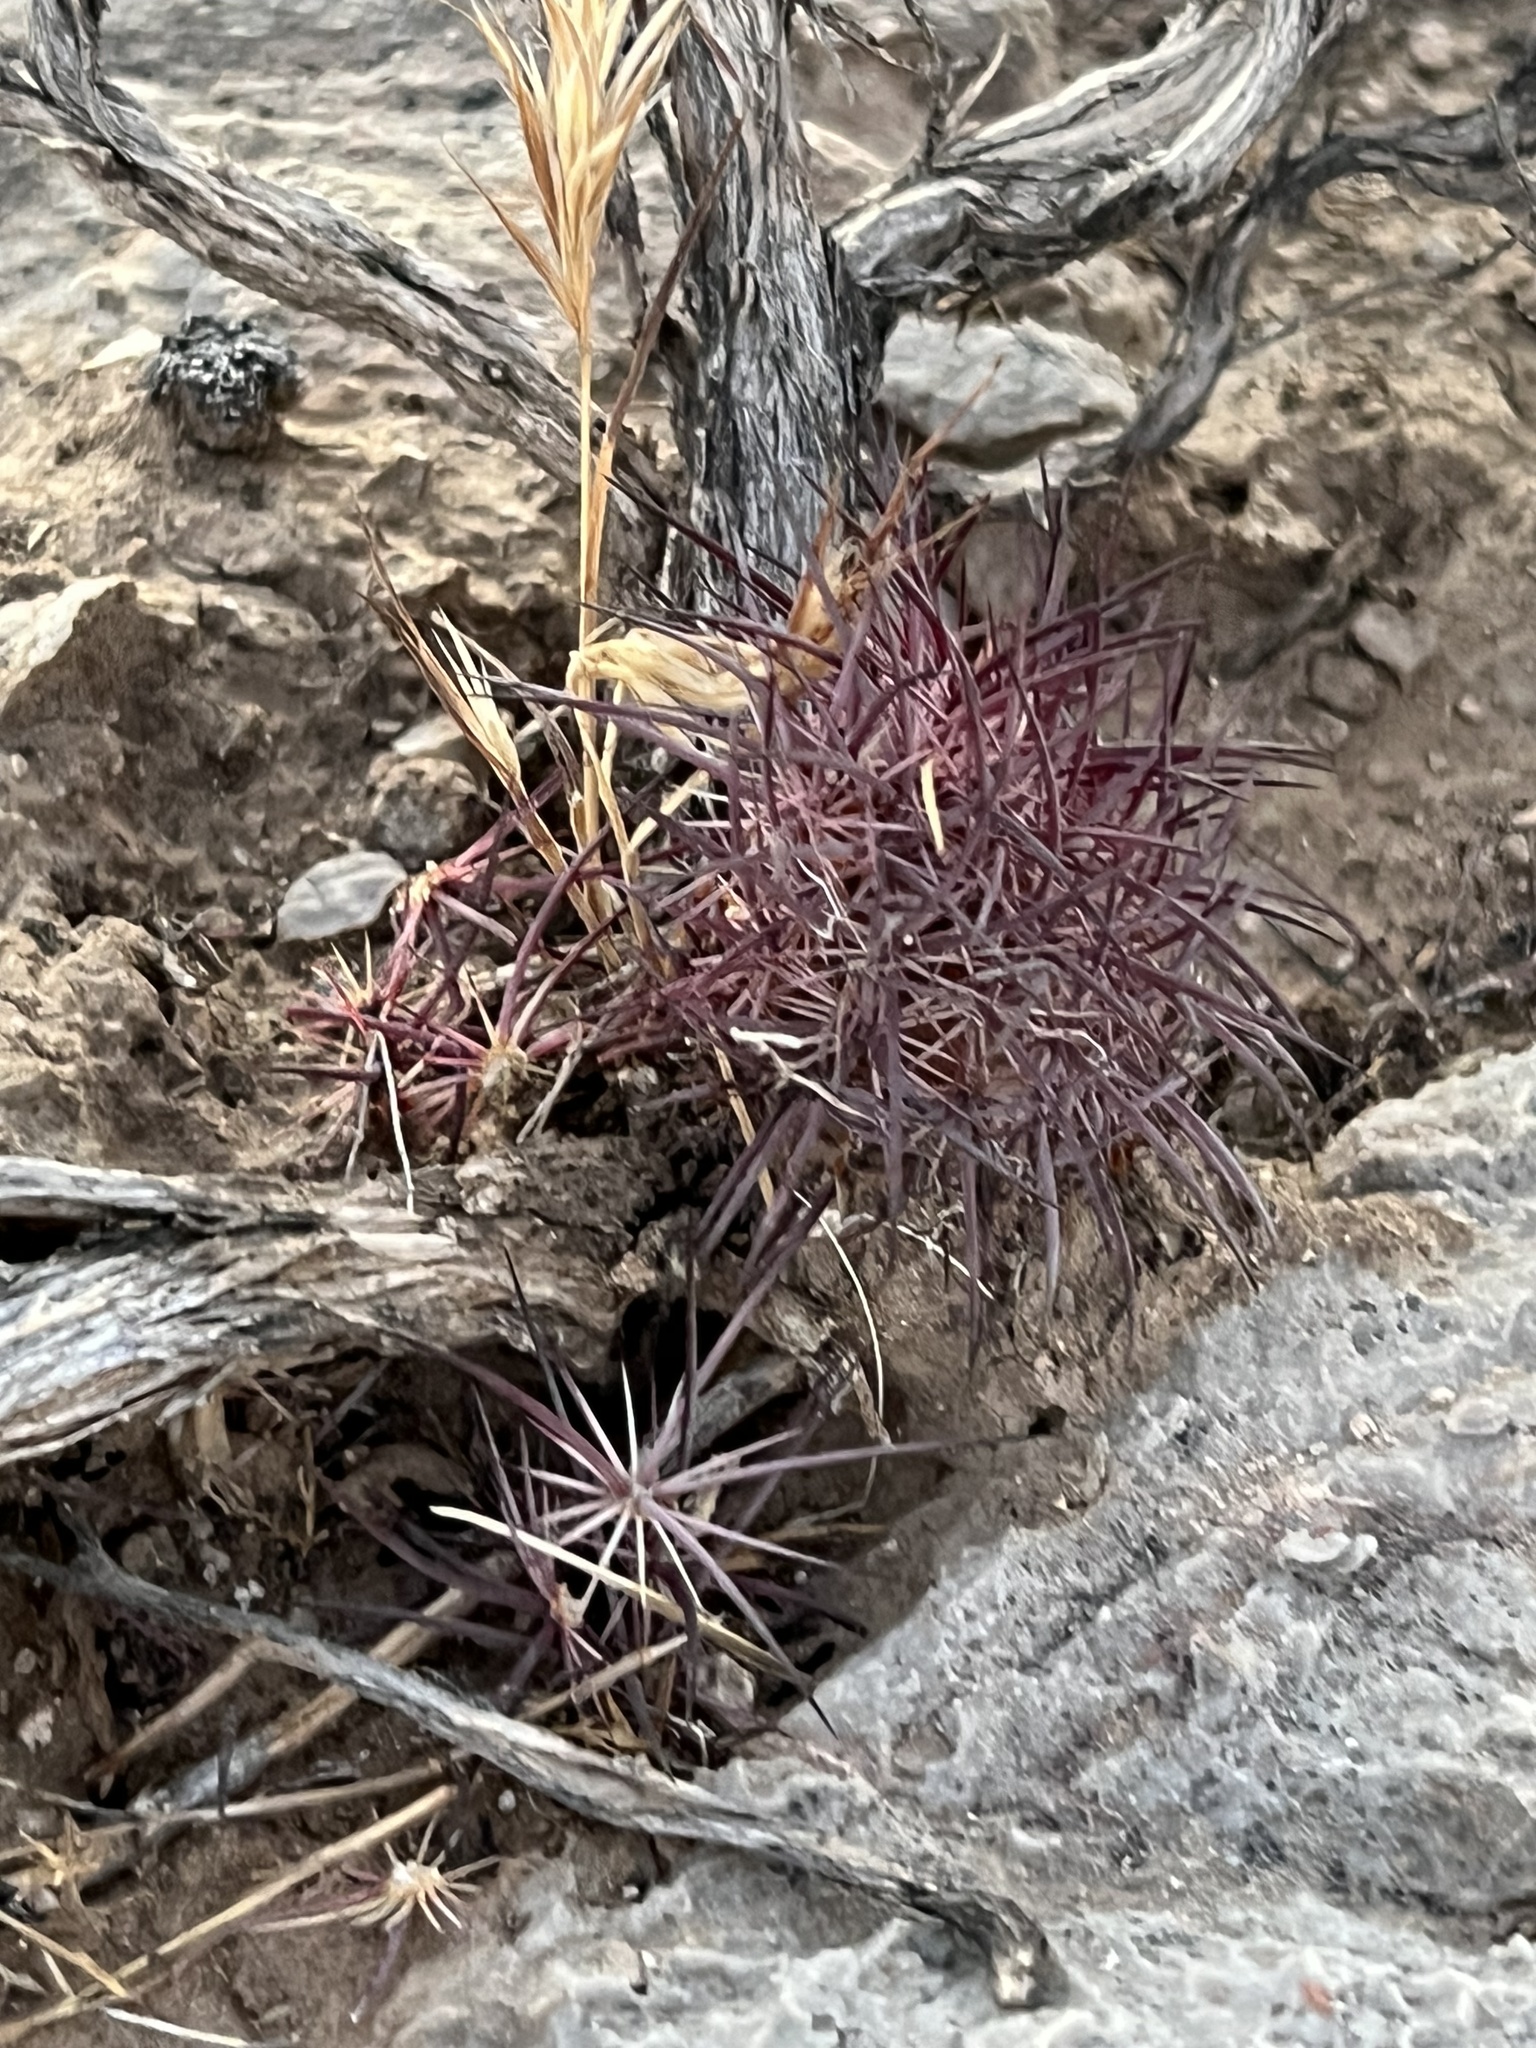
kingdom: Plantae
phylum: Tracheophyta
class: Magnoliopsida
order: Caryophyllales
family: Cactaceae
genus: Sclerocactus
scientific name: Sclerocactus johnsonii
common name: Eight-spine fishhook cactus
